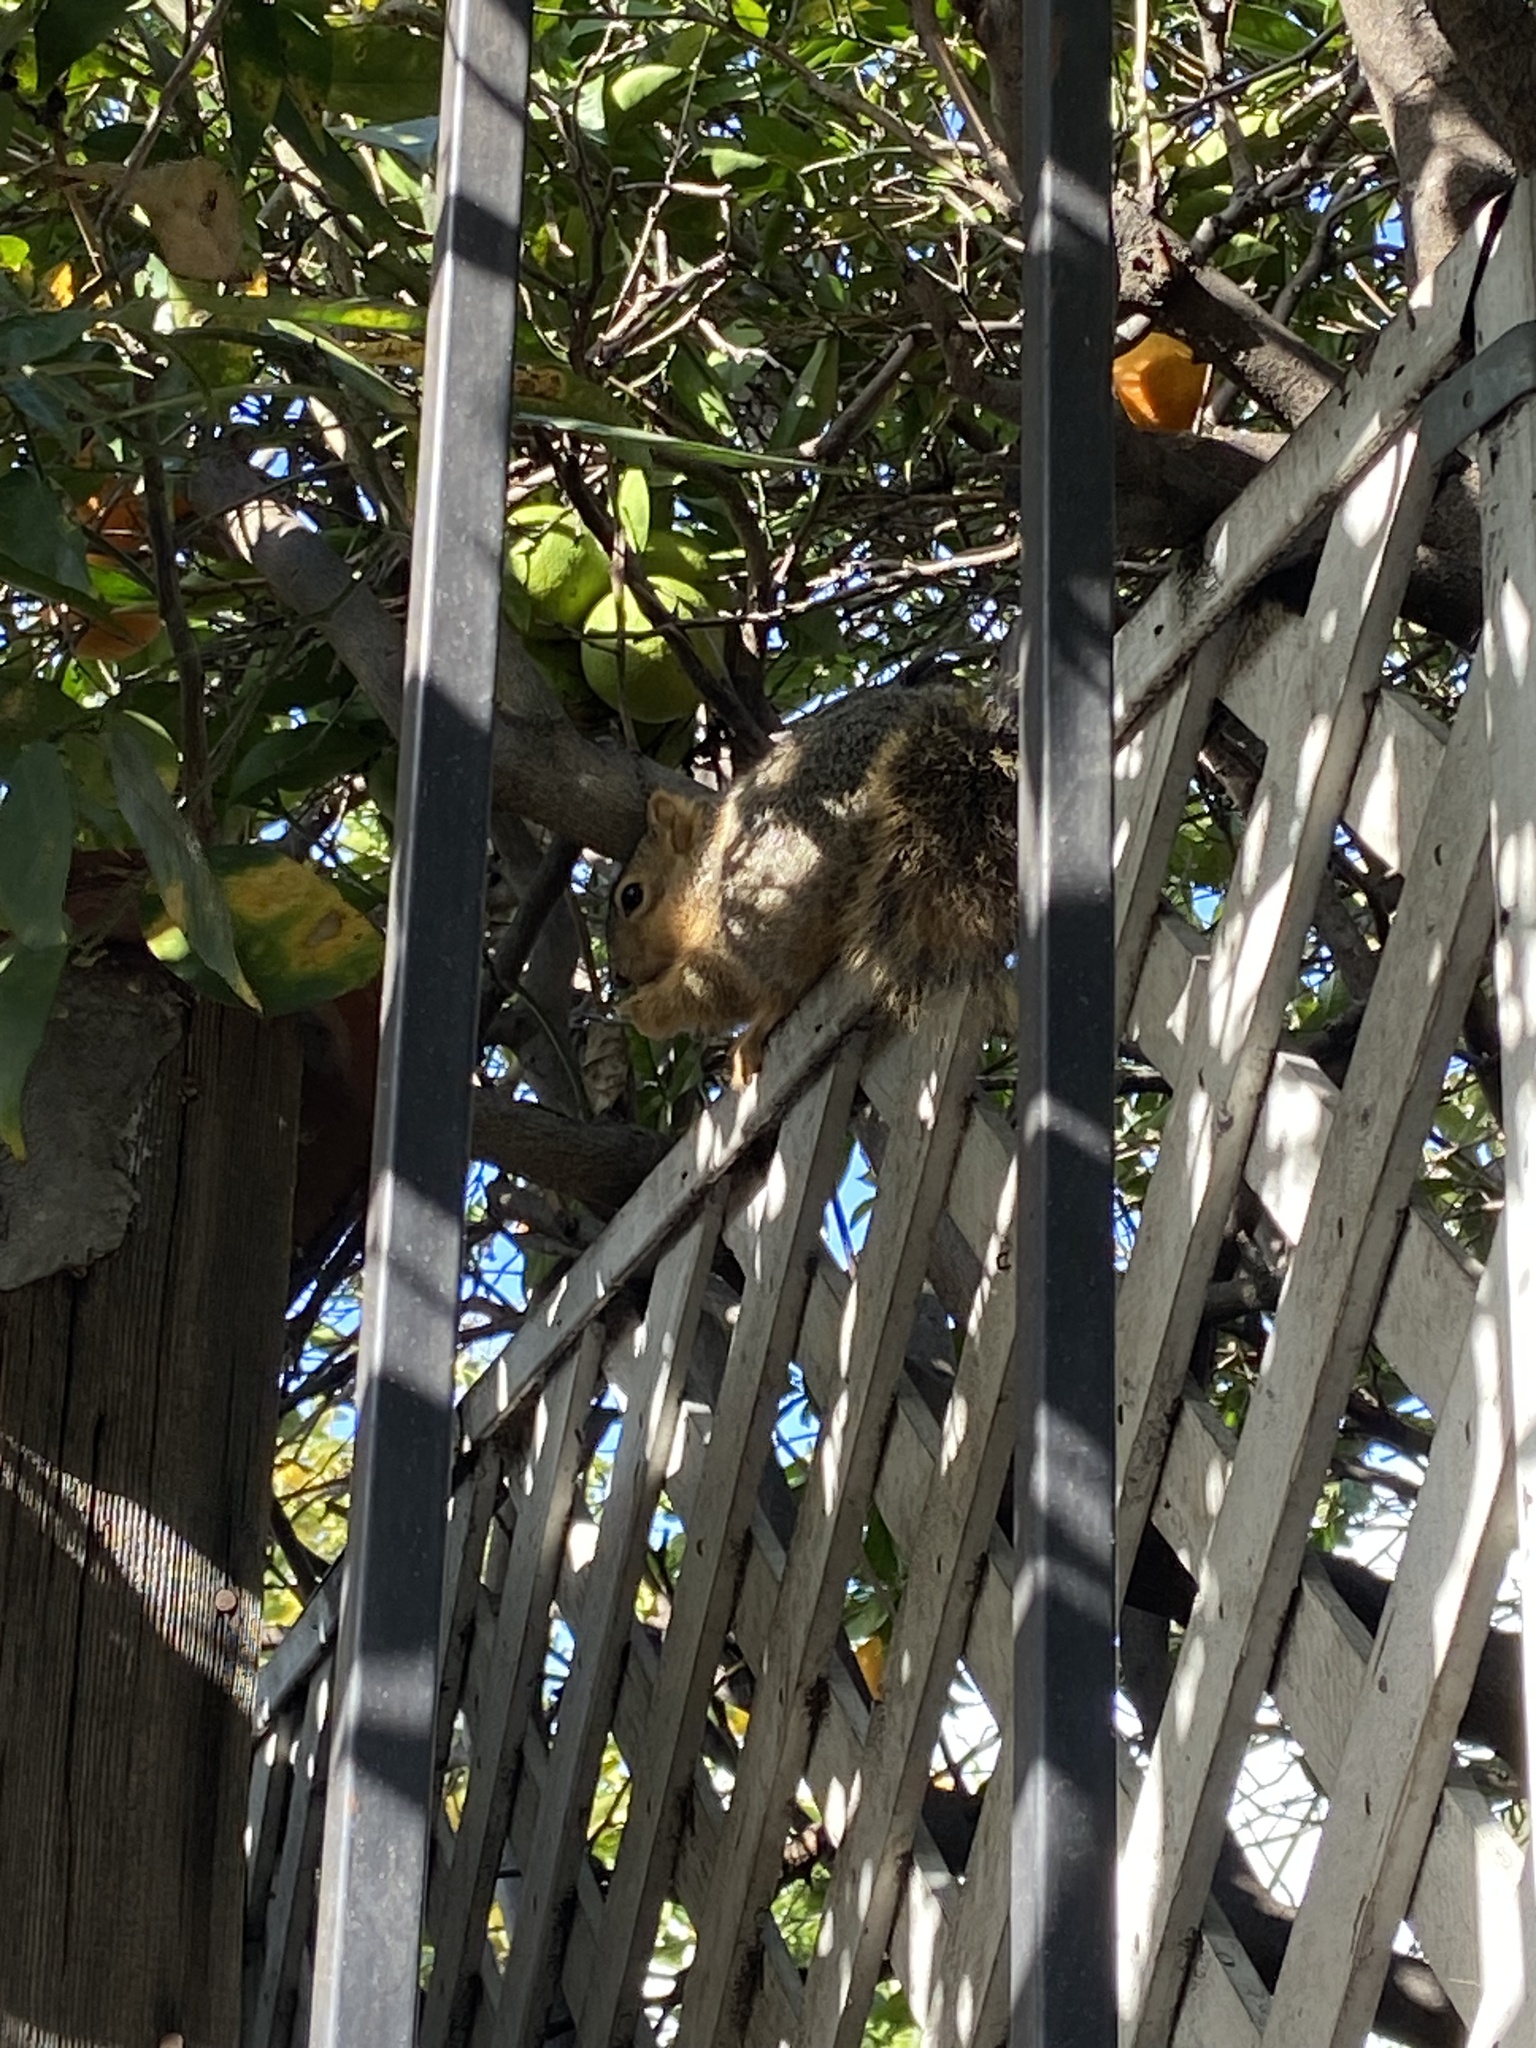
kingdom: Animalia
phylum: Chordata
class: Mammalia
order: Rodentia
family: Sciuridae
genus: Sciurus
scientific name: Sciurus niger
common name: Fox squirrel
